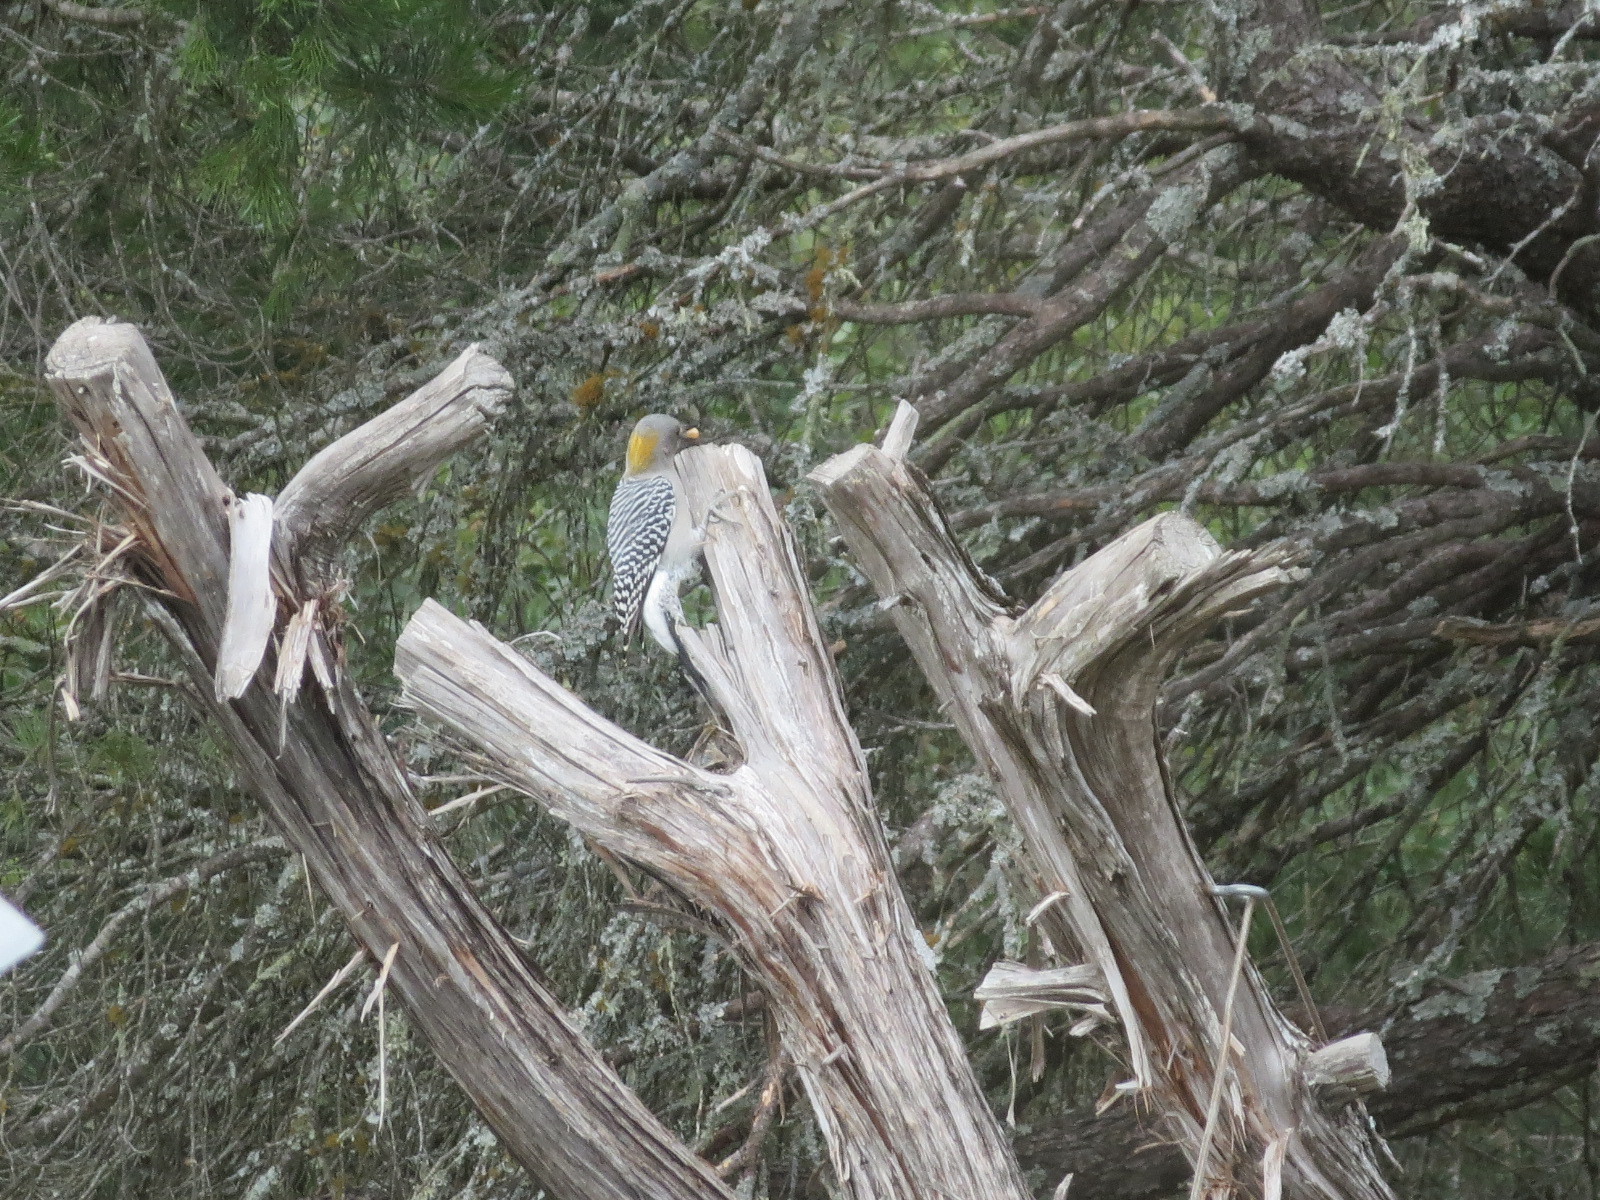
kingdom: Animalia
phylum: Chordata
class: Aves
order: Piciformes
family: Picidae
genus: Melanerpes
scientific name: Melanerpes aurifrons
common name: Golden-fronted woodpecker
